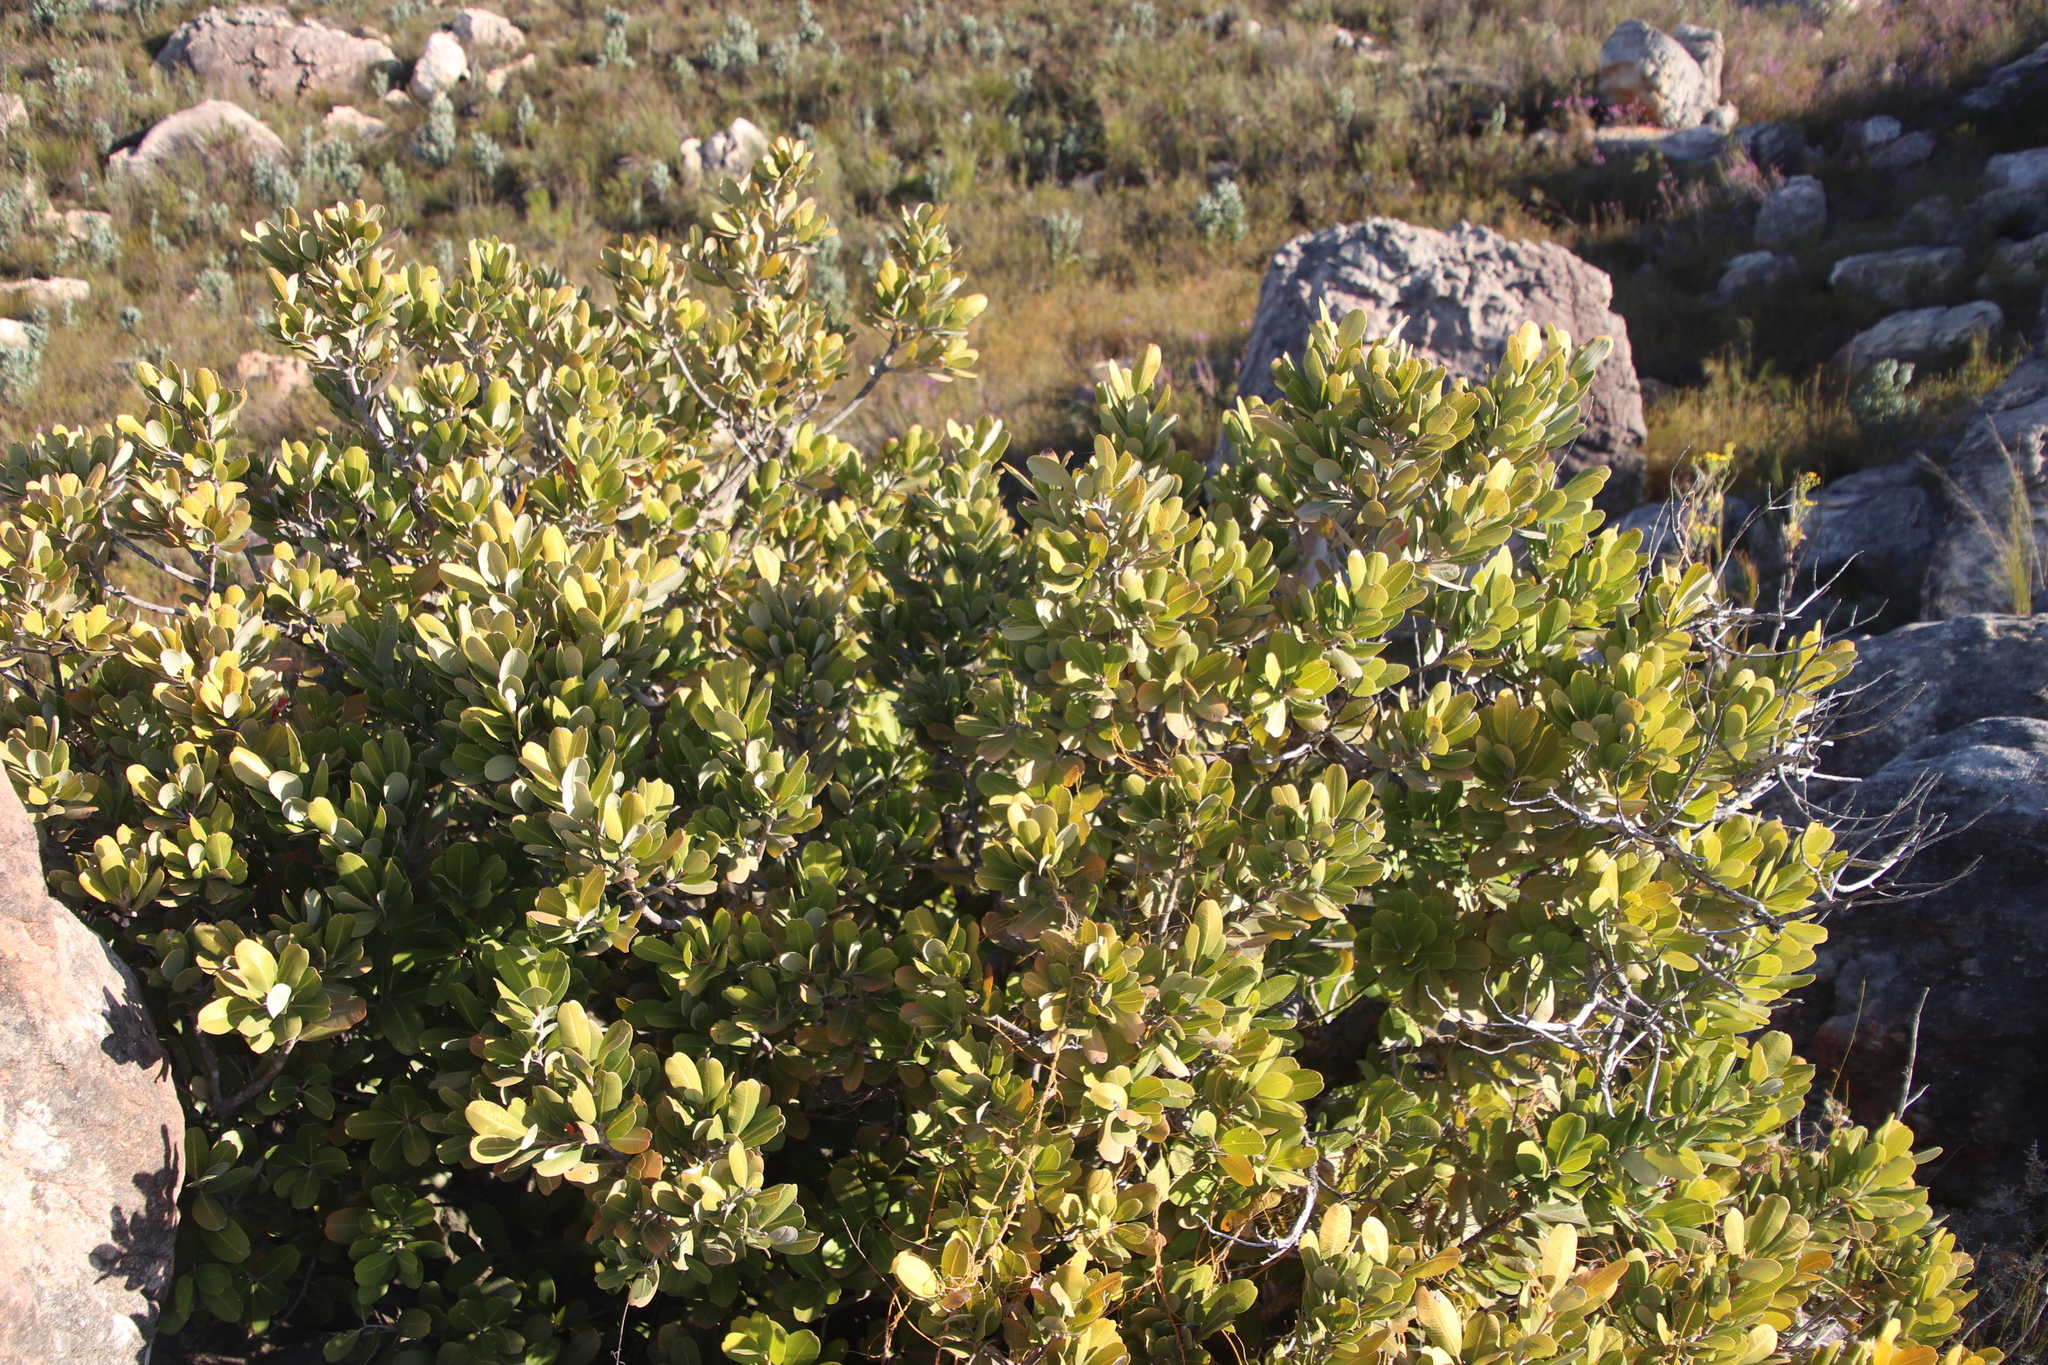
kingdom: Plantae
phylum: Tracheophyta
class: Magnoliopsida
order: Sapindales
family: Anacardiaceae
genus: Heeria
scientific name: Heeria argentea
